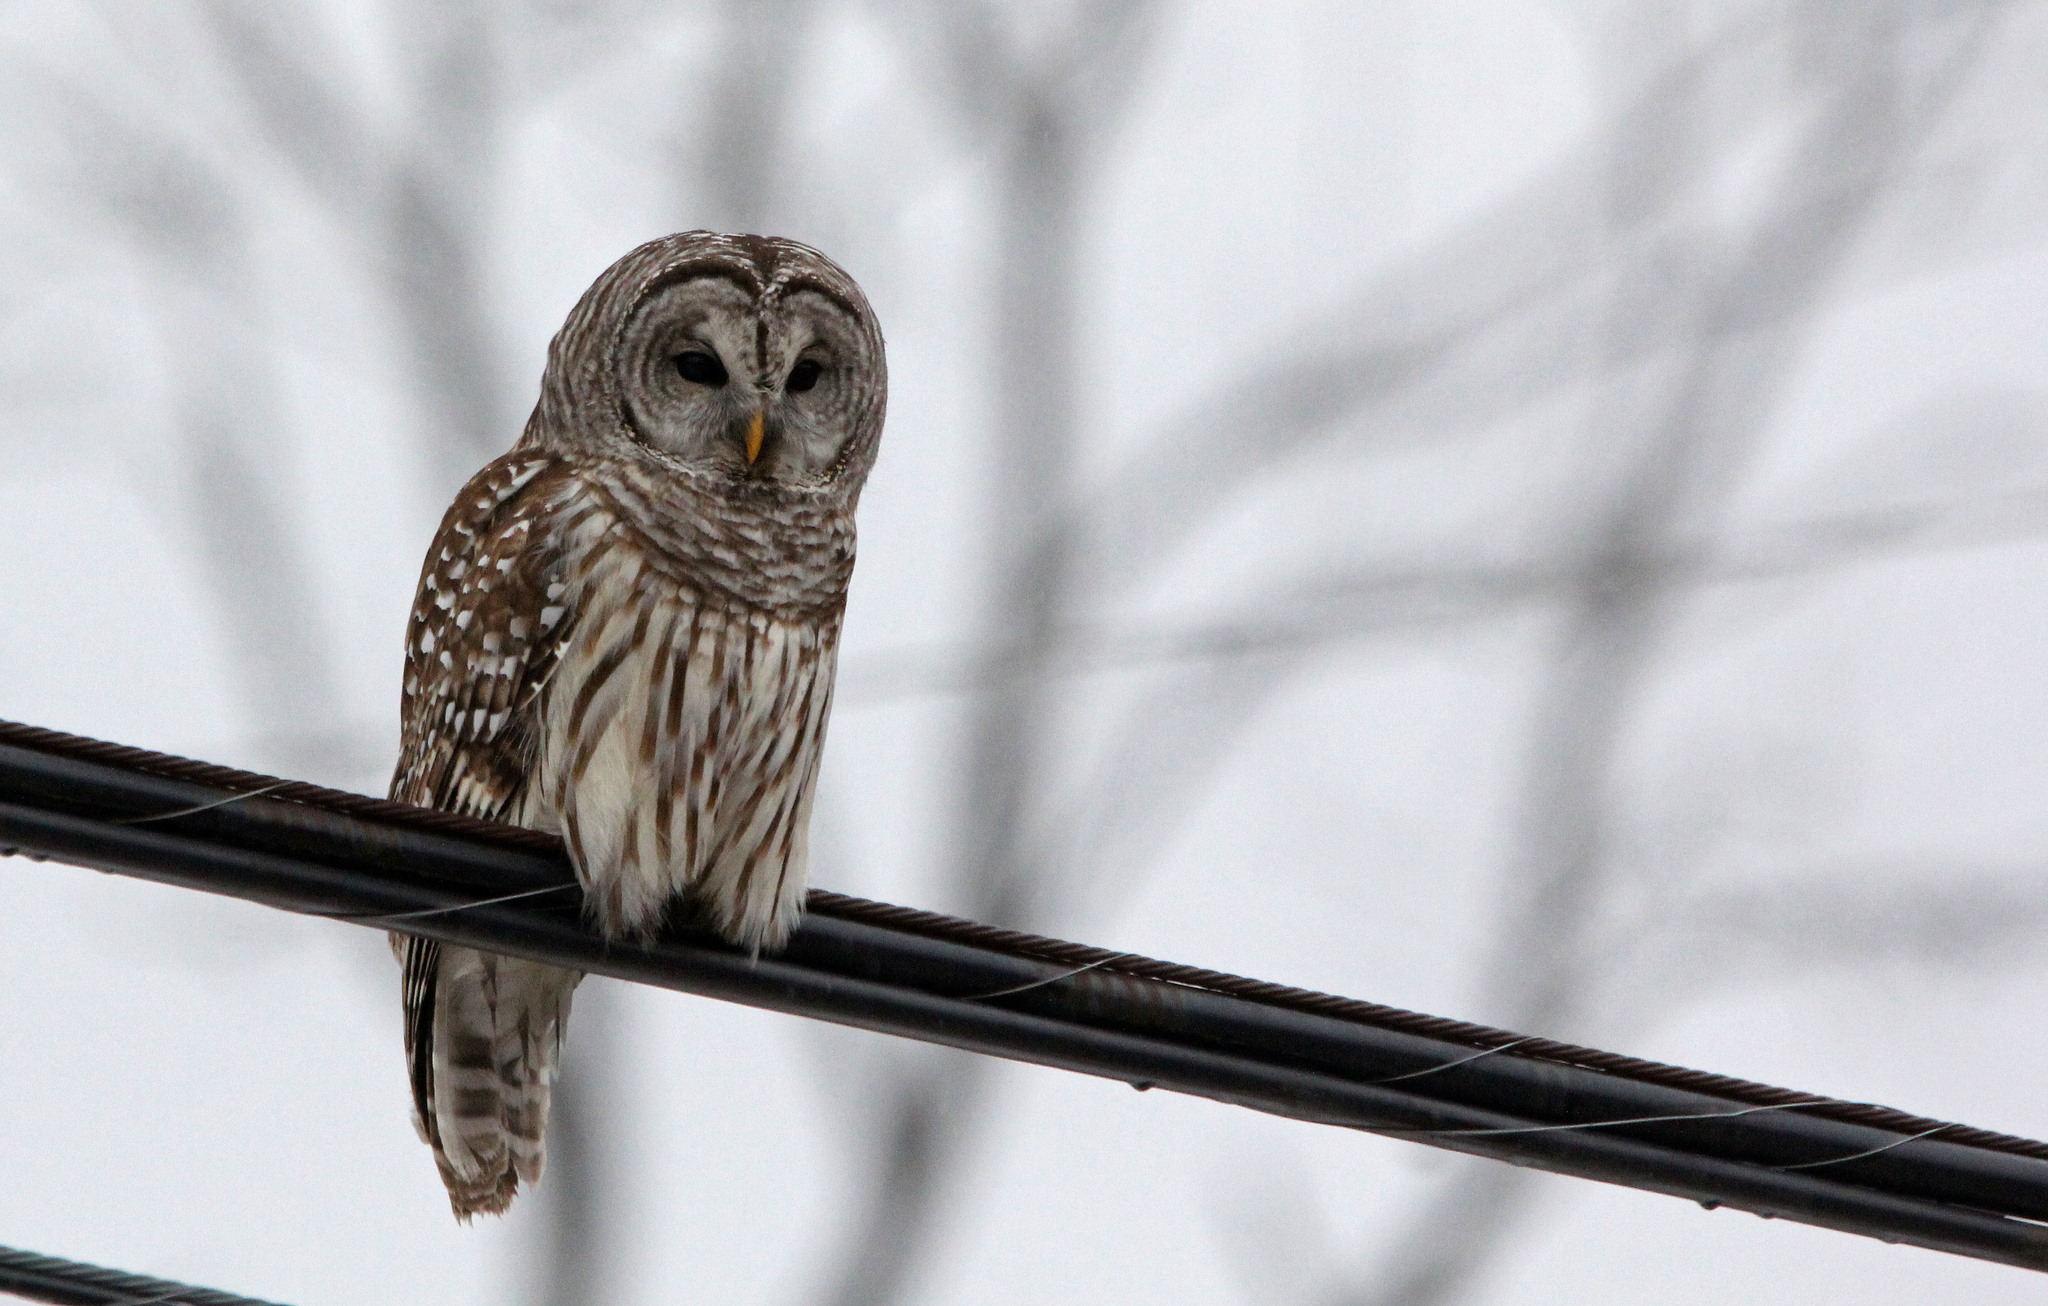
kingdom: Animalia
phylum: Chordata
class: Aves
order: Strigiformes
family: Strigidae
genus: Strix
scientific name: Strix varia
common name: Barred owl
